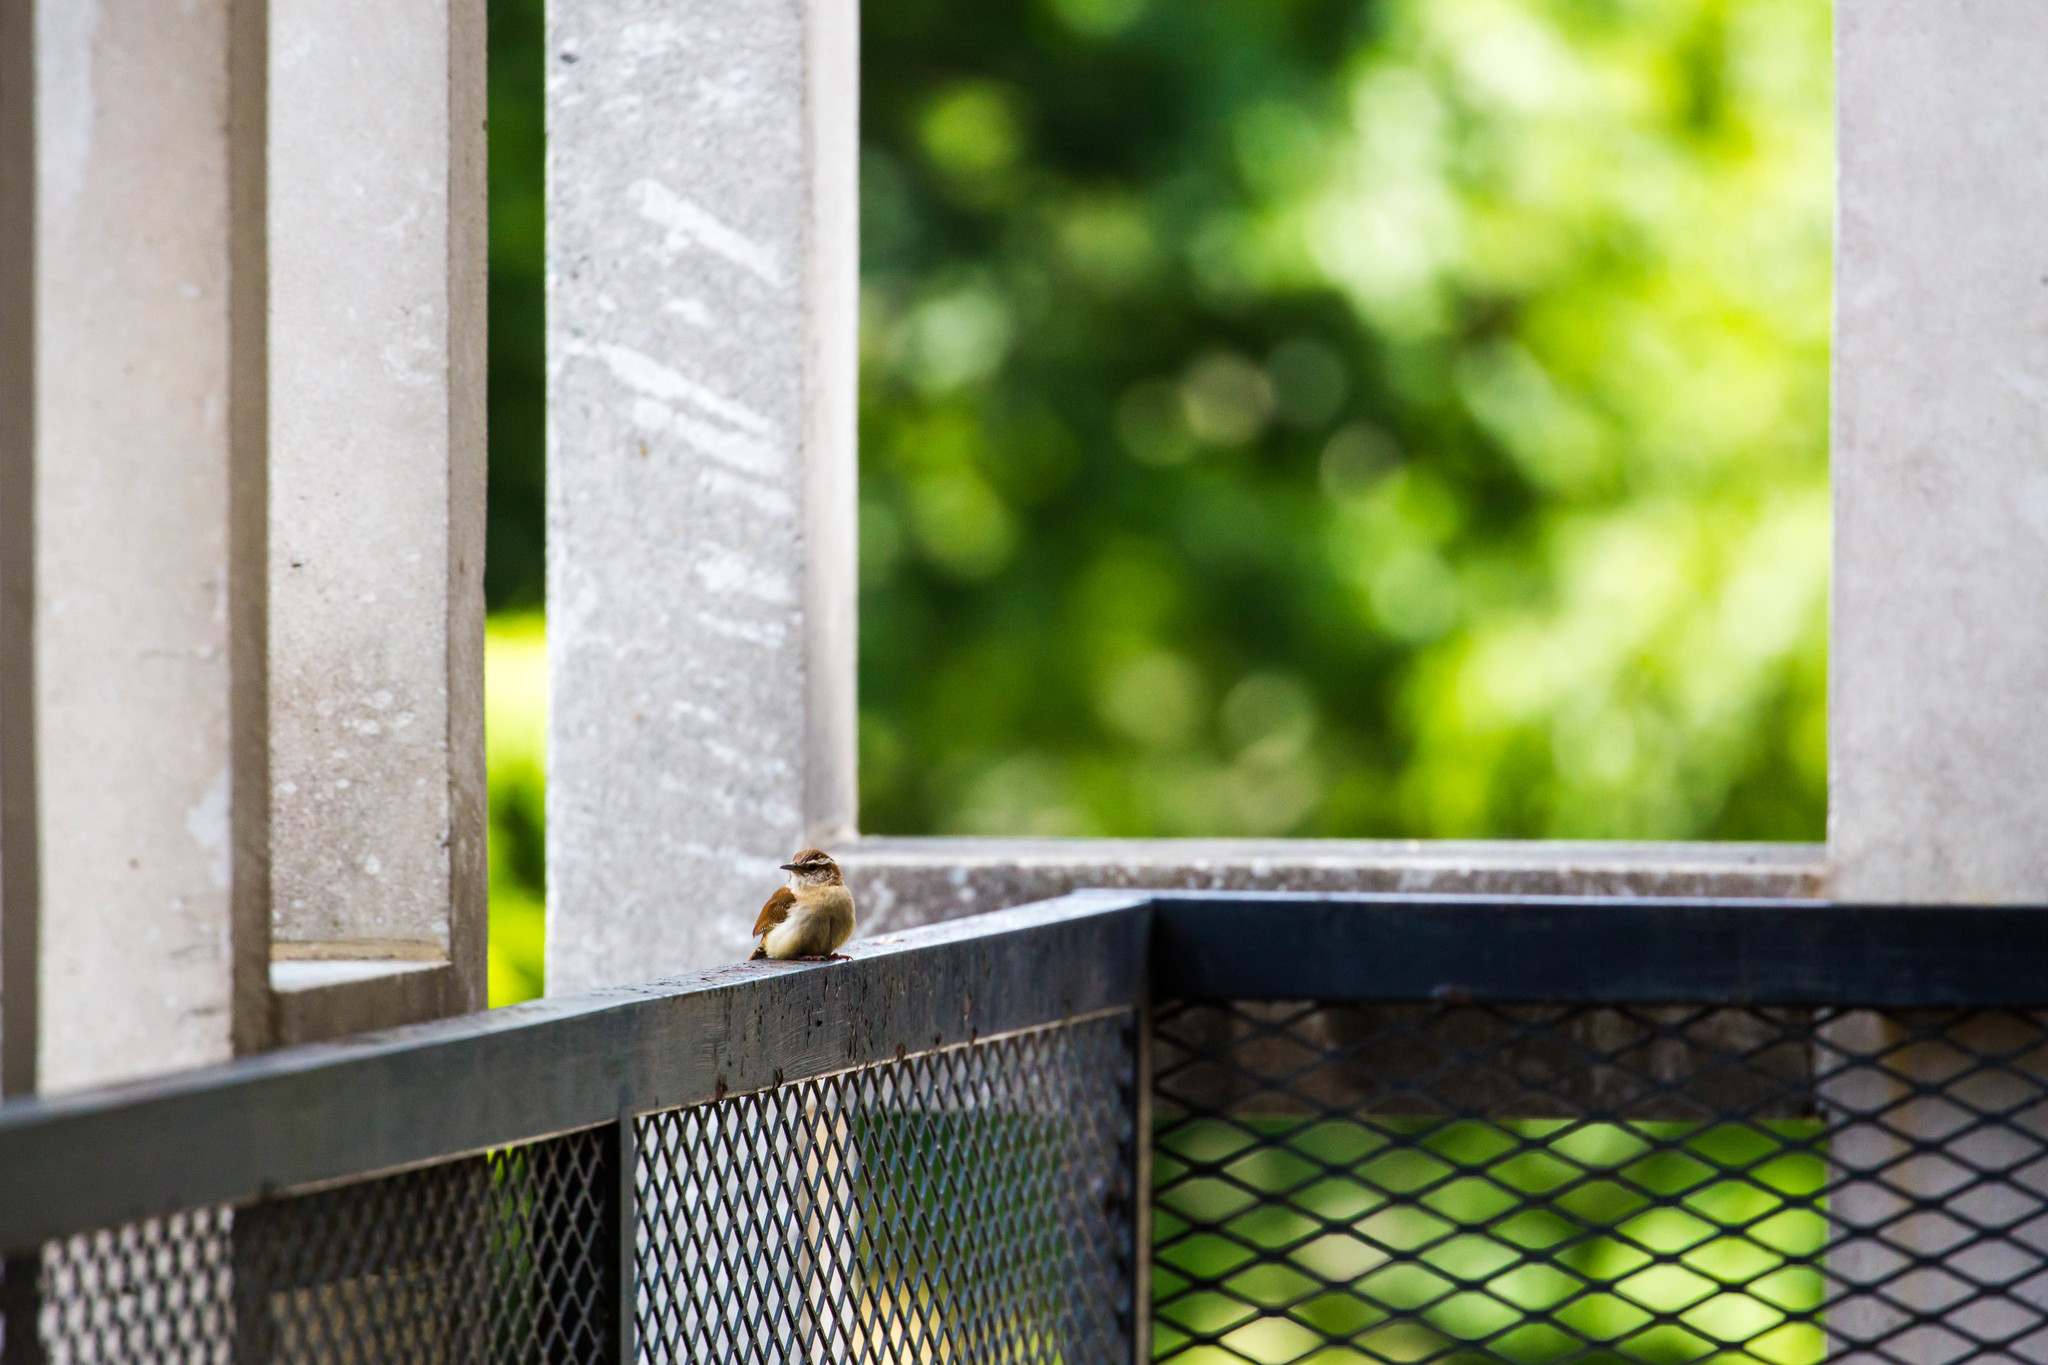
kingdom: Animalia
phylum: Chordata
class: Aves
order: Passeriformes
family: Troglodytidae
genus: Thryothorus
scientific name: Thryothorus ludovicianus
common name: Carolina wren
